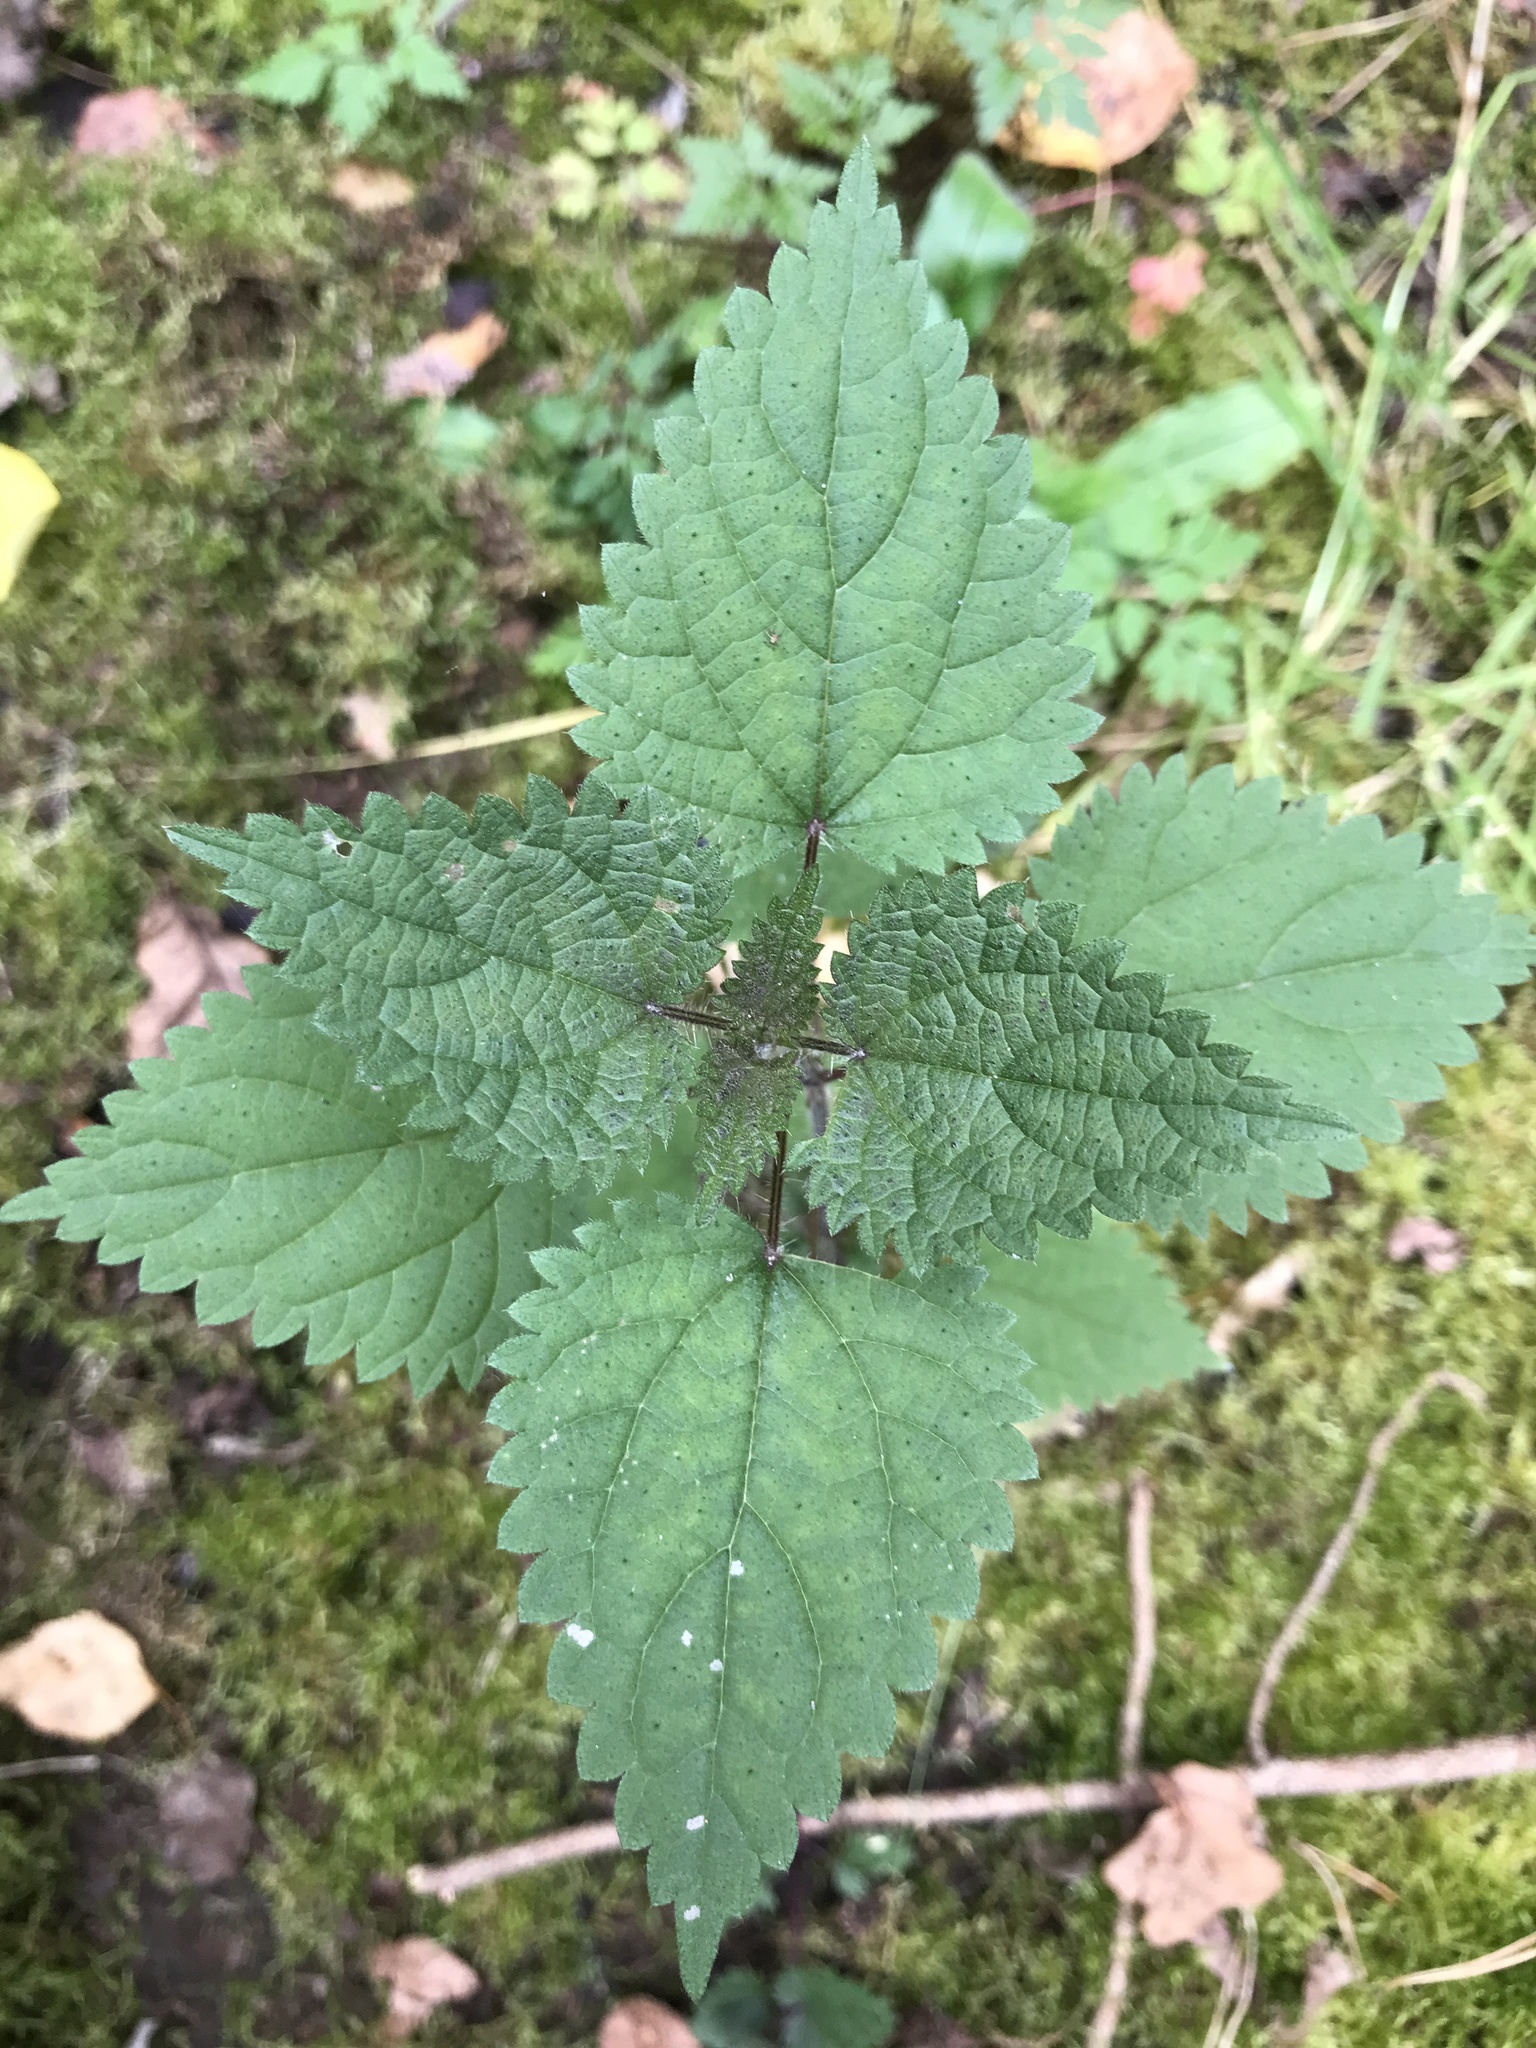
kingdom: Plantae
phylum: Tracheophyta
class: Magnoliopsida
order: Rosales
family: Urticaceae
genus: Urtica
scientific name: Urtica dioica
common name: Common nettle
